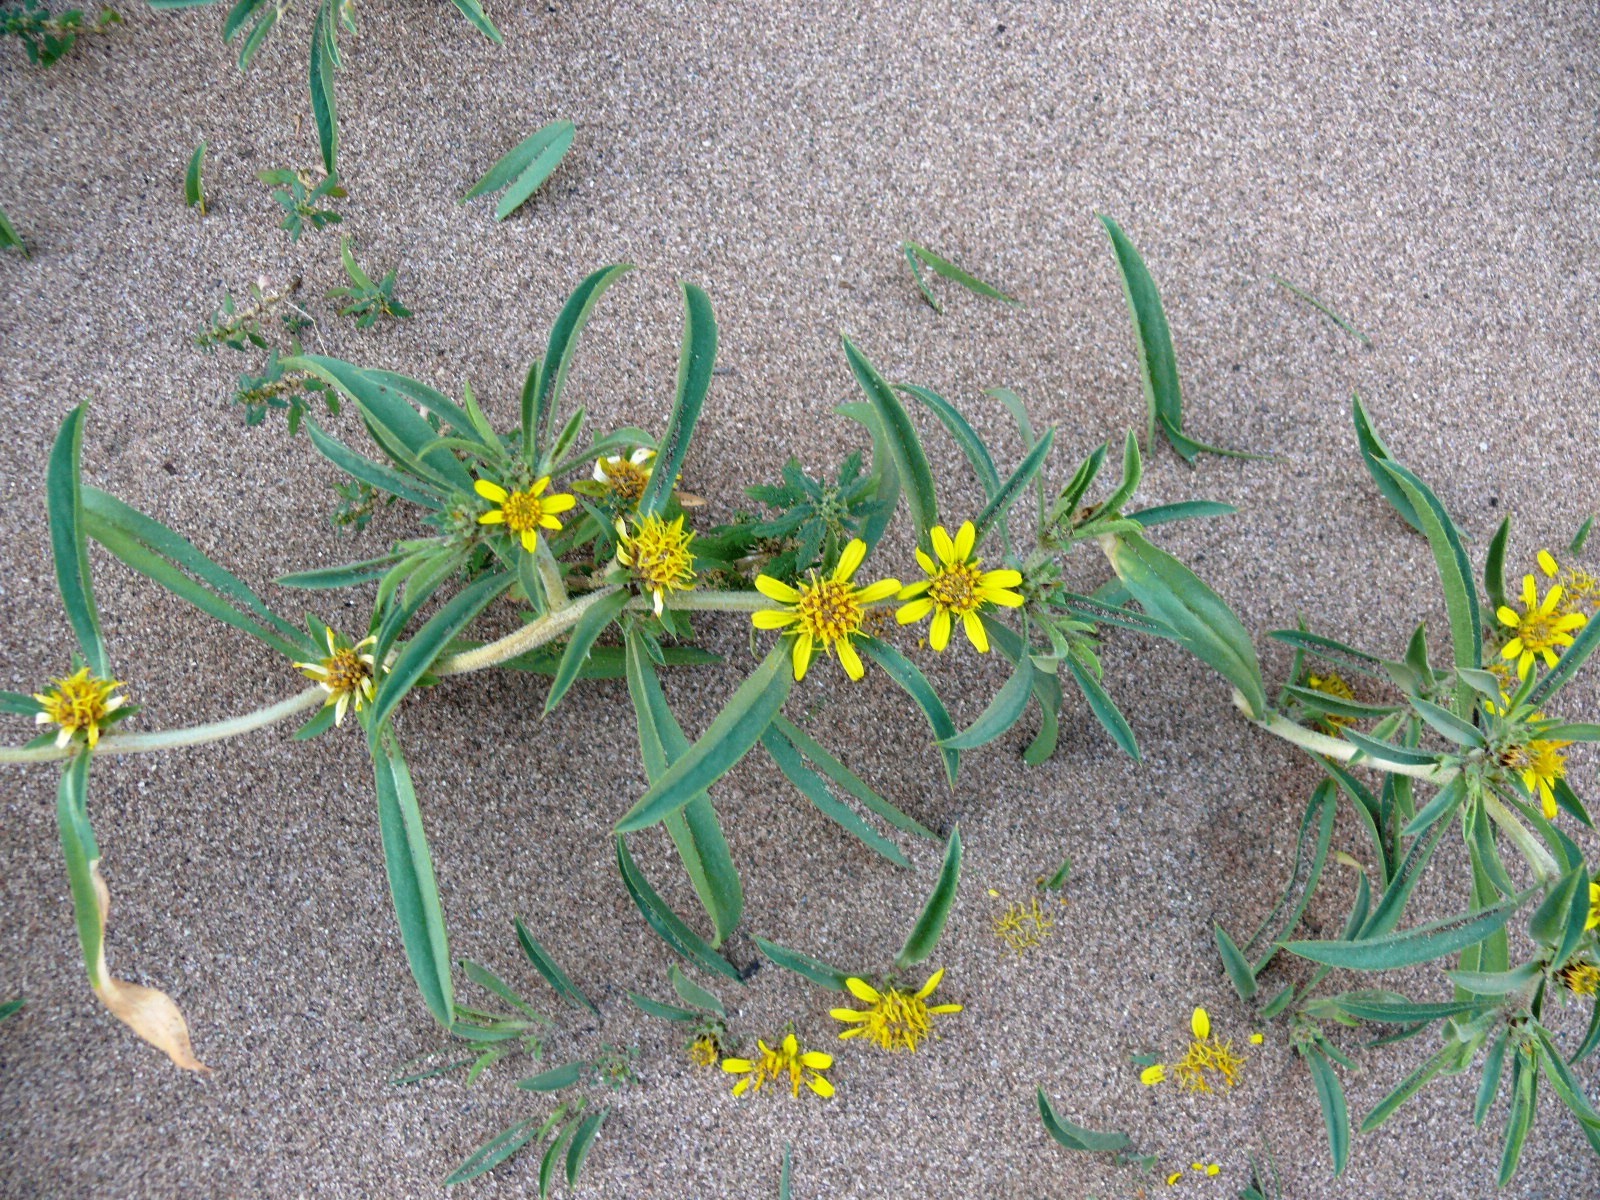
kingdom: Plantae
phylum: Tracheophyta
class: Magnoliopsida
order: Asterales
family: Asteraceae
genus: Geigeria
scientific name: Geigeria vigintisquamea
